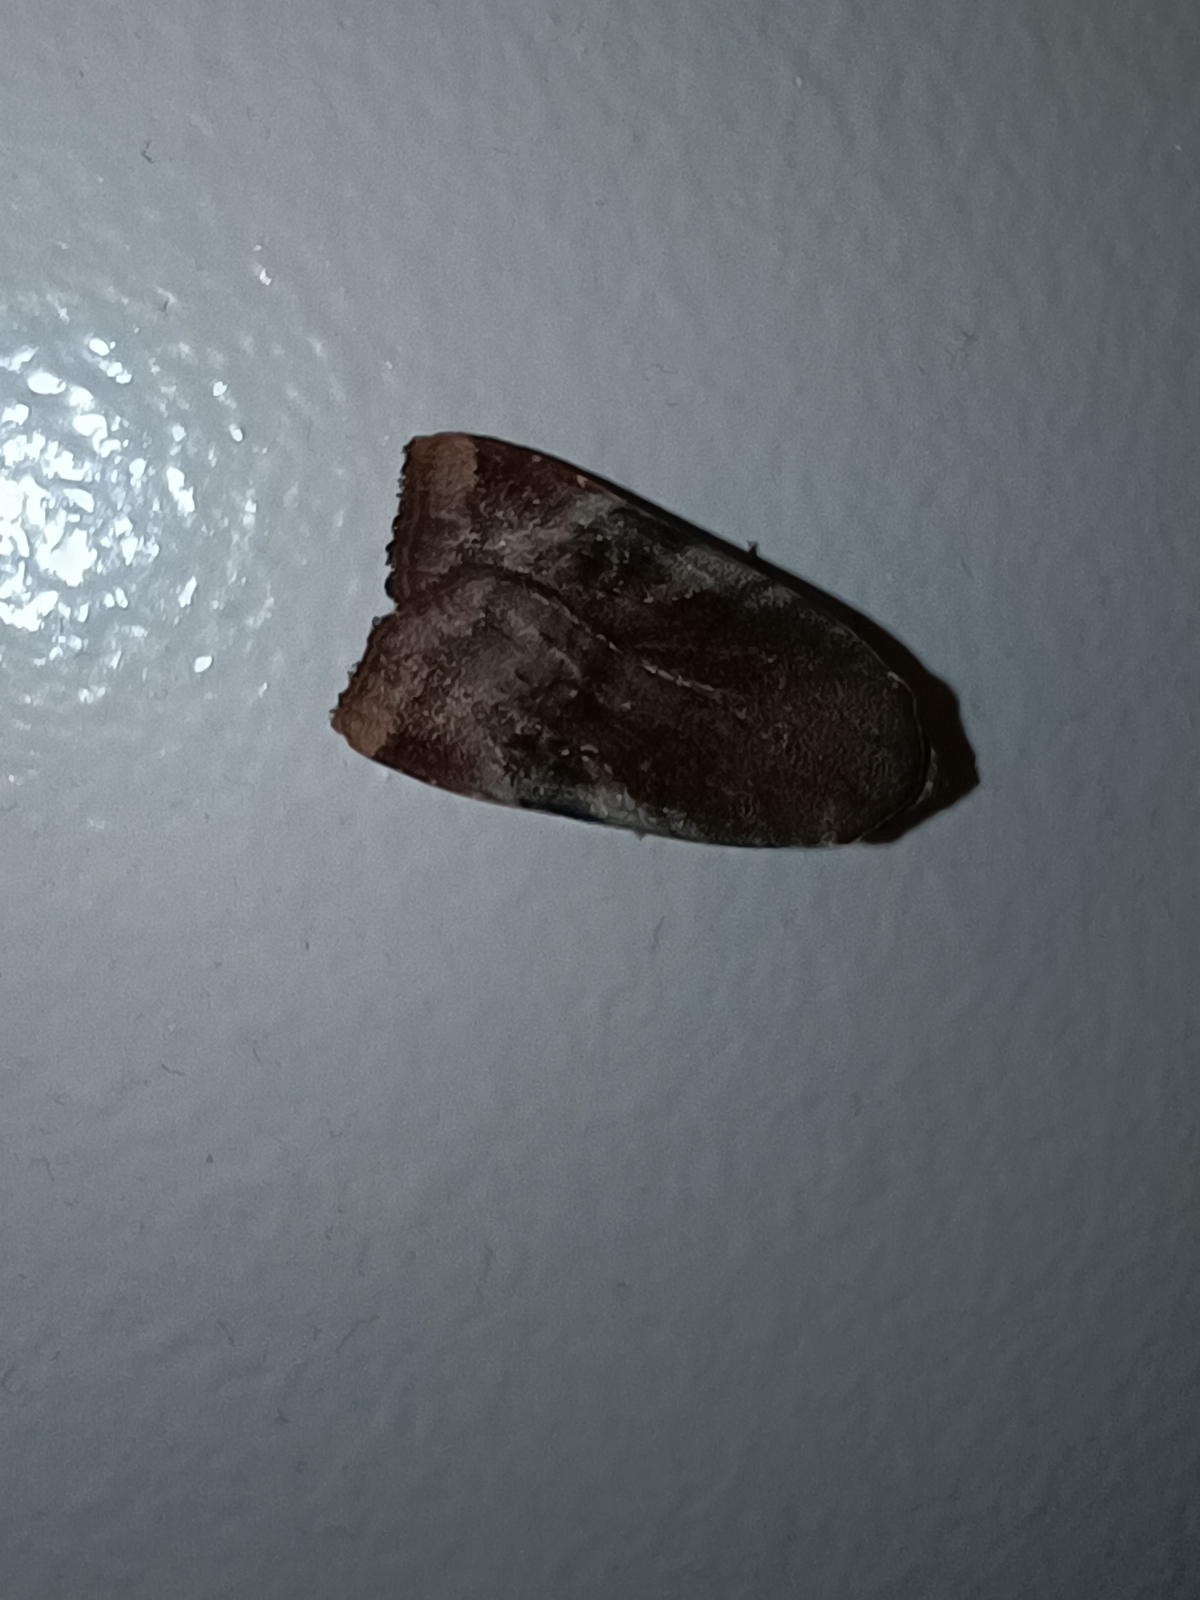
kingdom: Animalia
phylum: Arthropoda
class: Insecta
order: Lepidoptera
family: Noctuidae
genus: Noctua
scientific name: Noctua janthe
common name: Lesser broad-bordered yellow underwing
